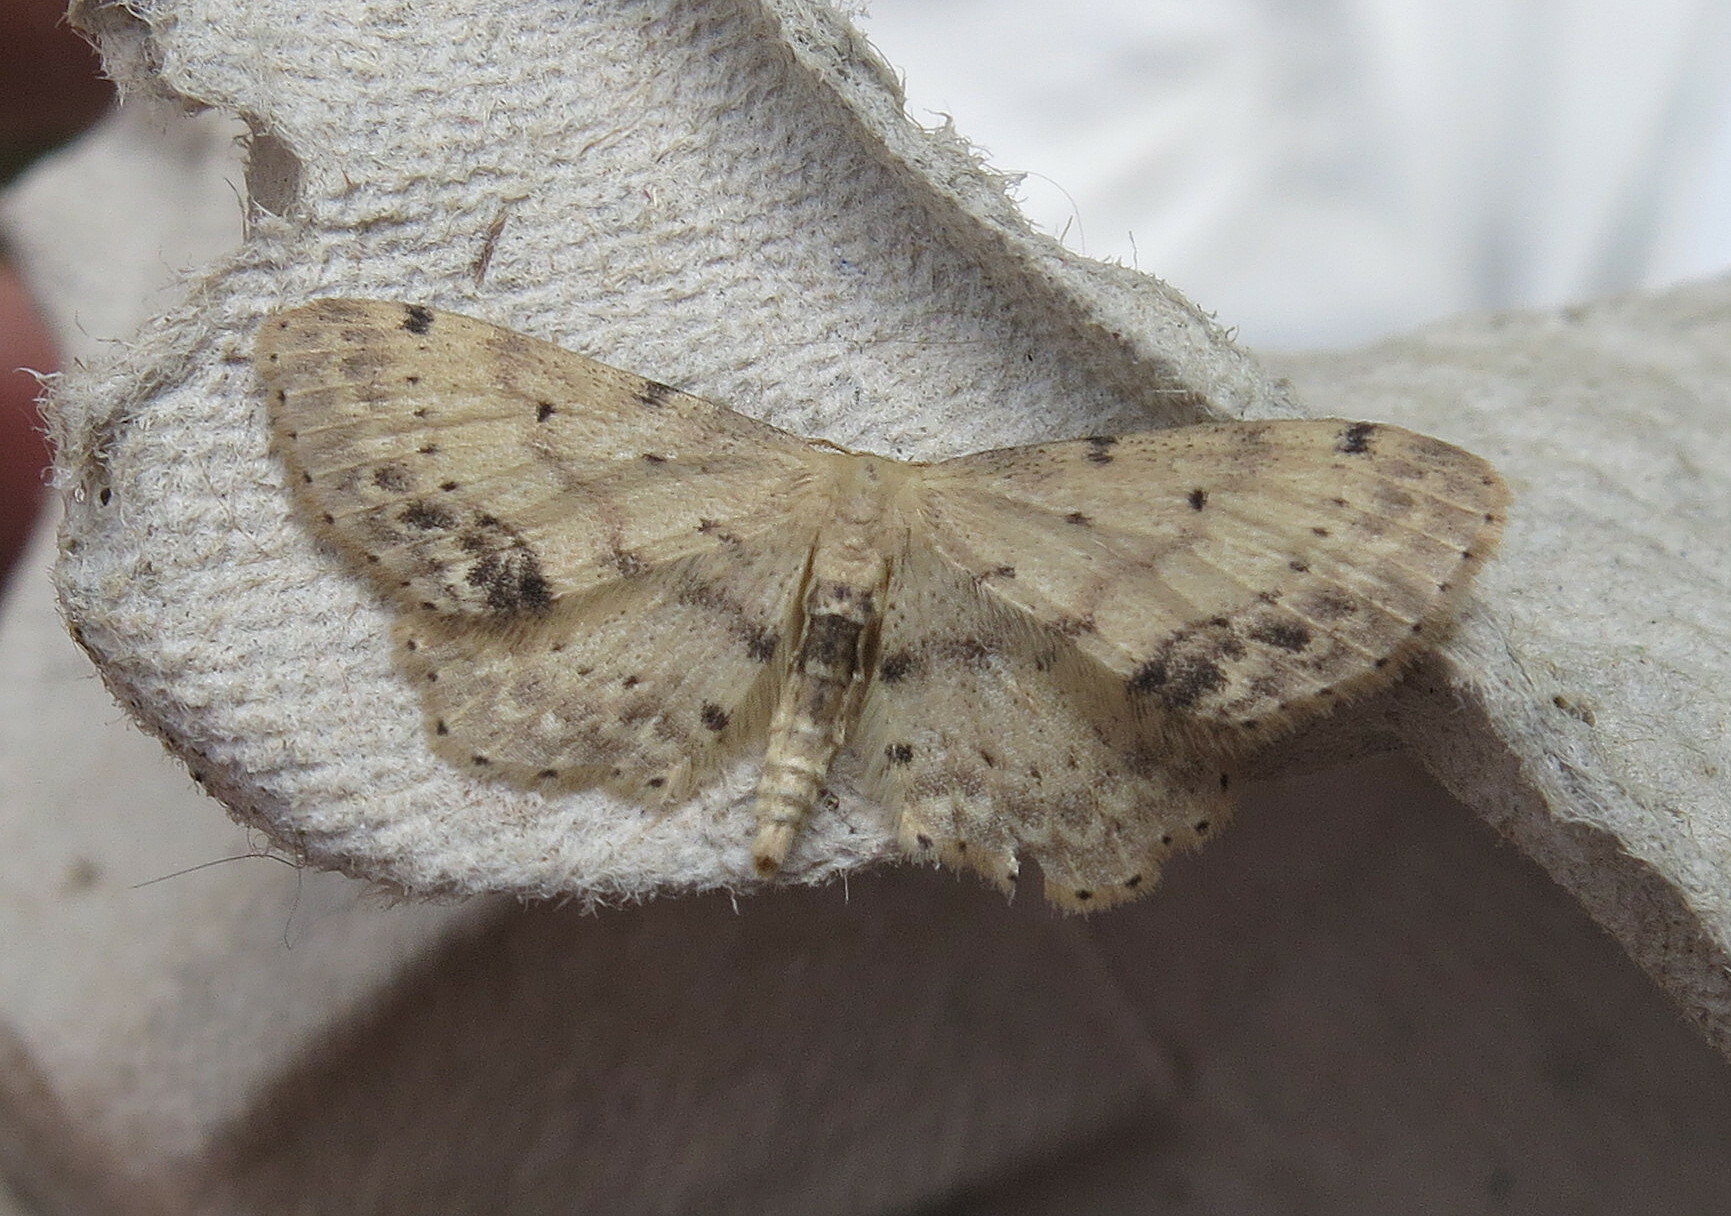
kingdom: Animalia
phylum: Arthropoda
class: Insecta
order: Lepidoptera
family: Geometridae
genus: Idaea
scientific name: Idaea dimidiata
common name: Single-dotted wave
